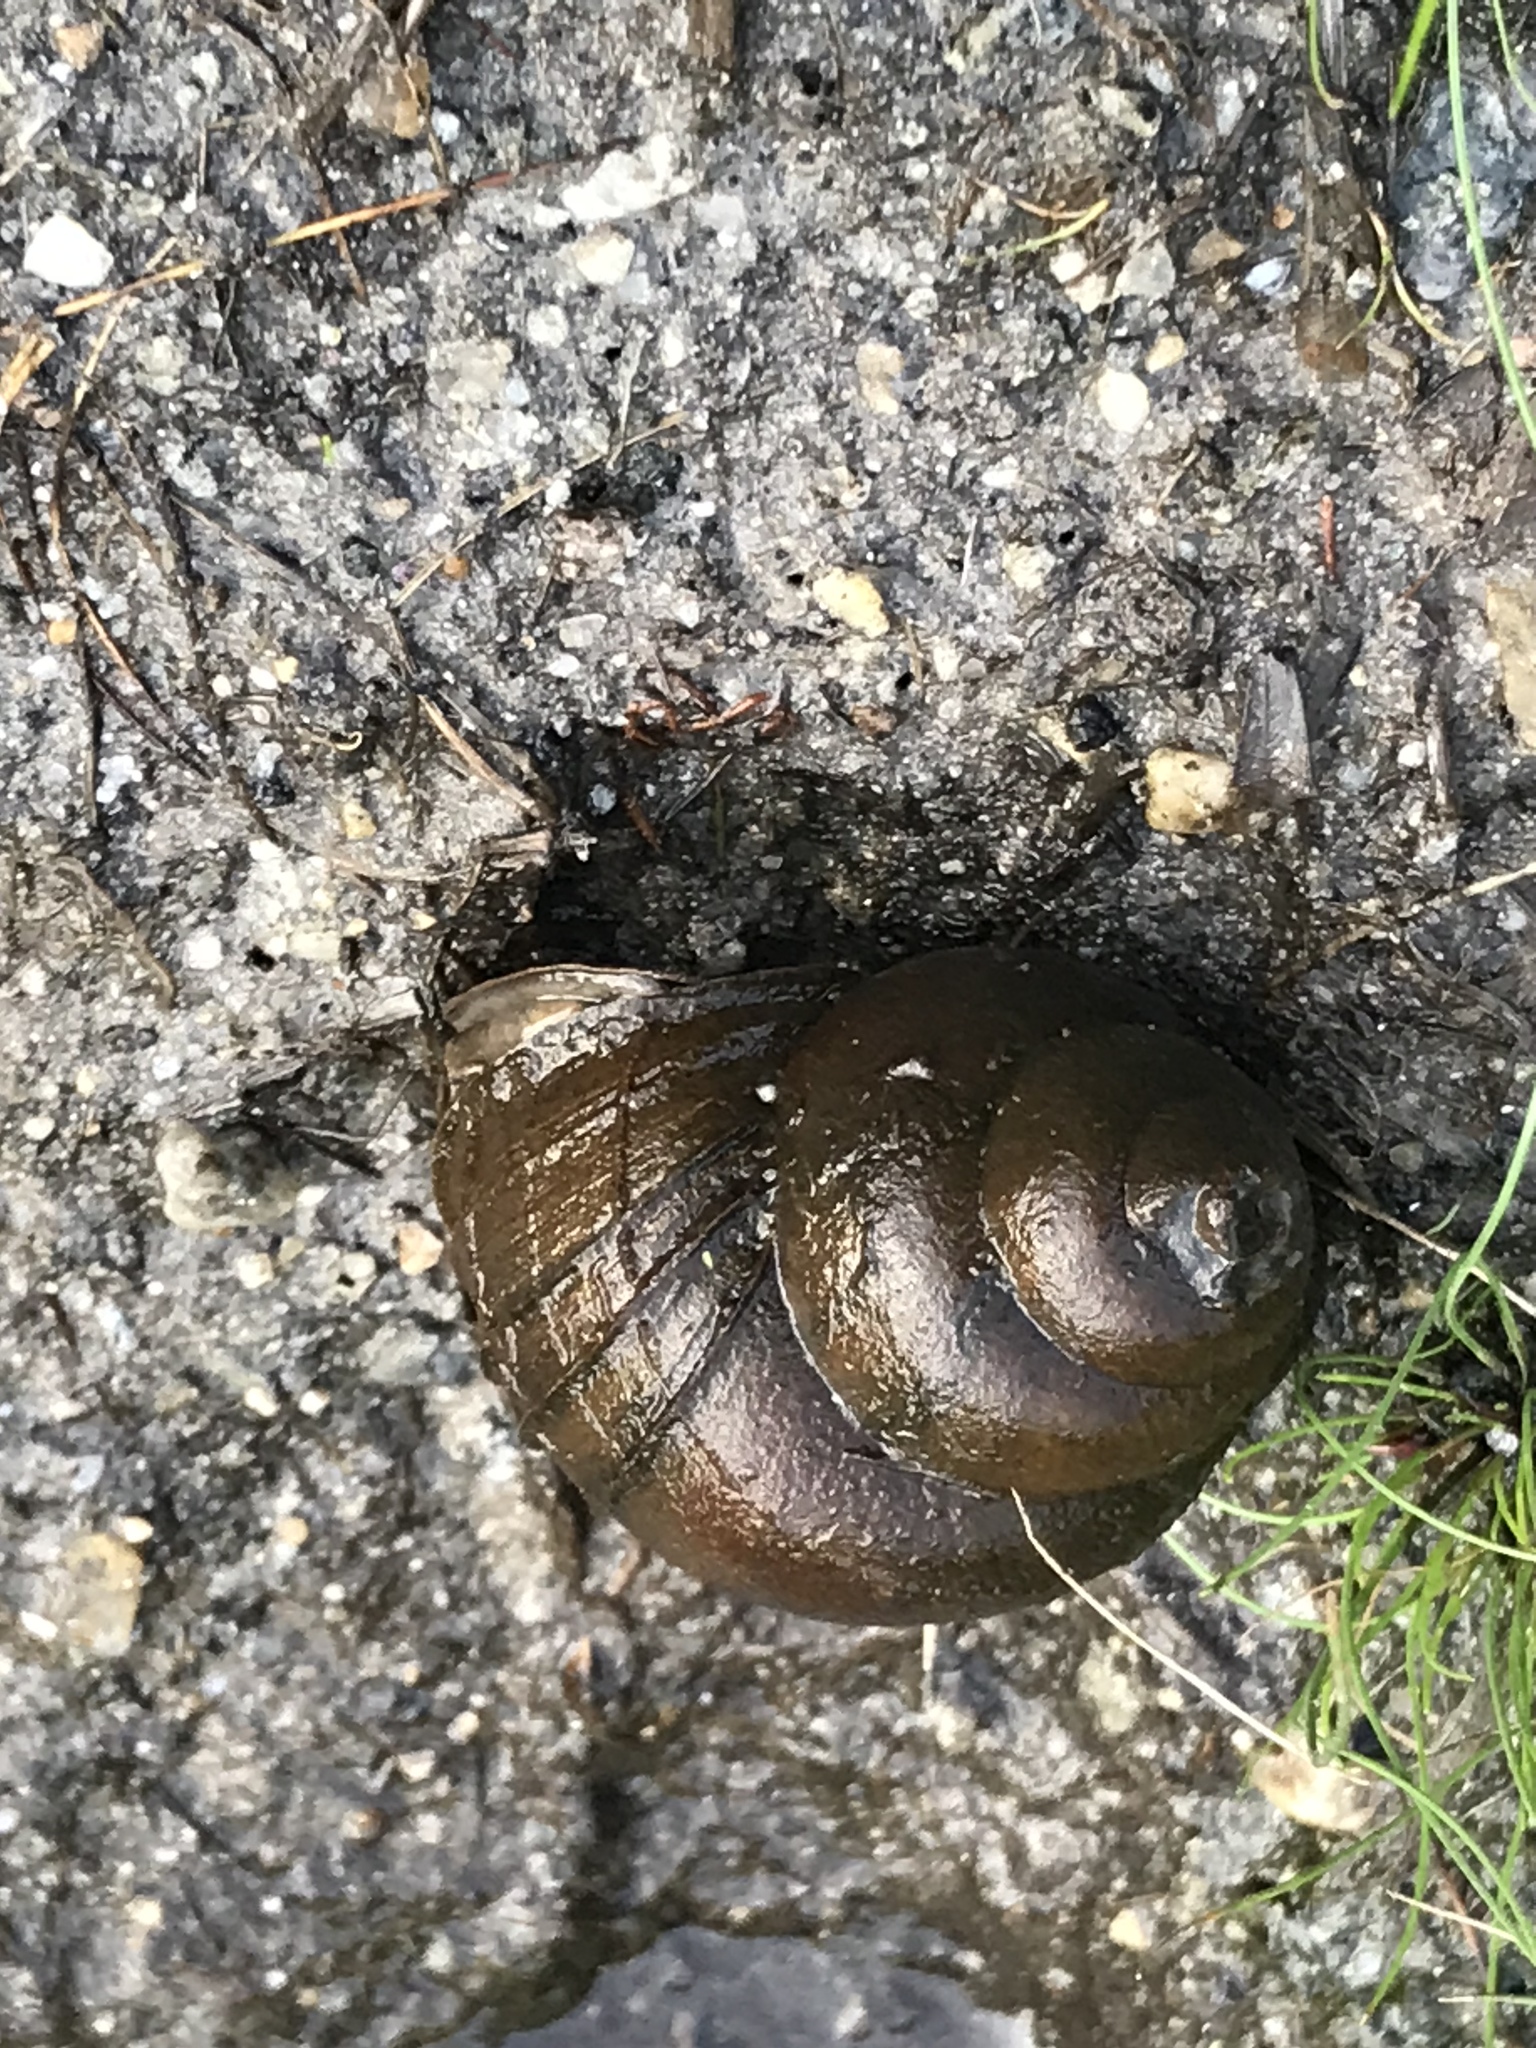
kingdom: Animalia
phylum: Mollusca
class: Gastropoda
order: Architaenioglossa
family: Viviparidae
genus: Cipangopaludina
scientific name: Cipangopaludina chinensis
